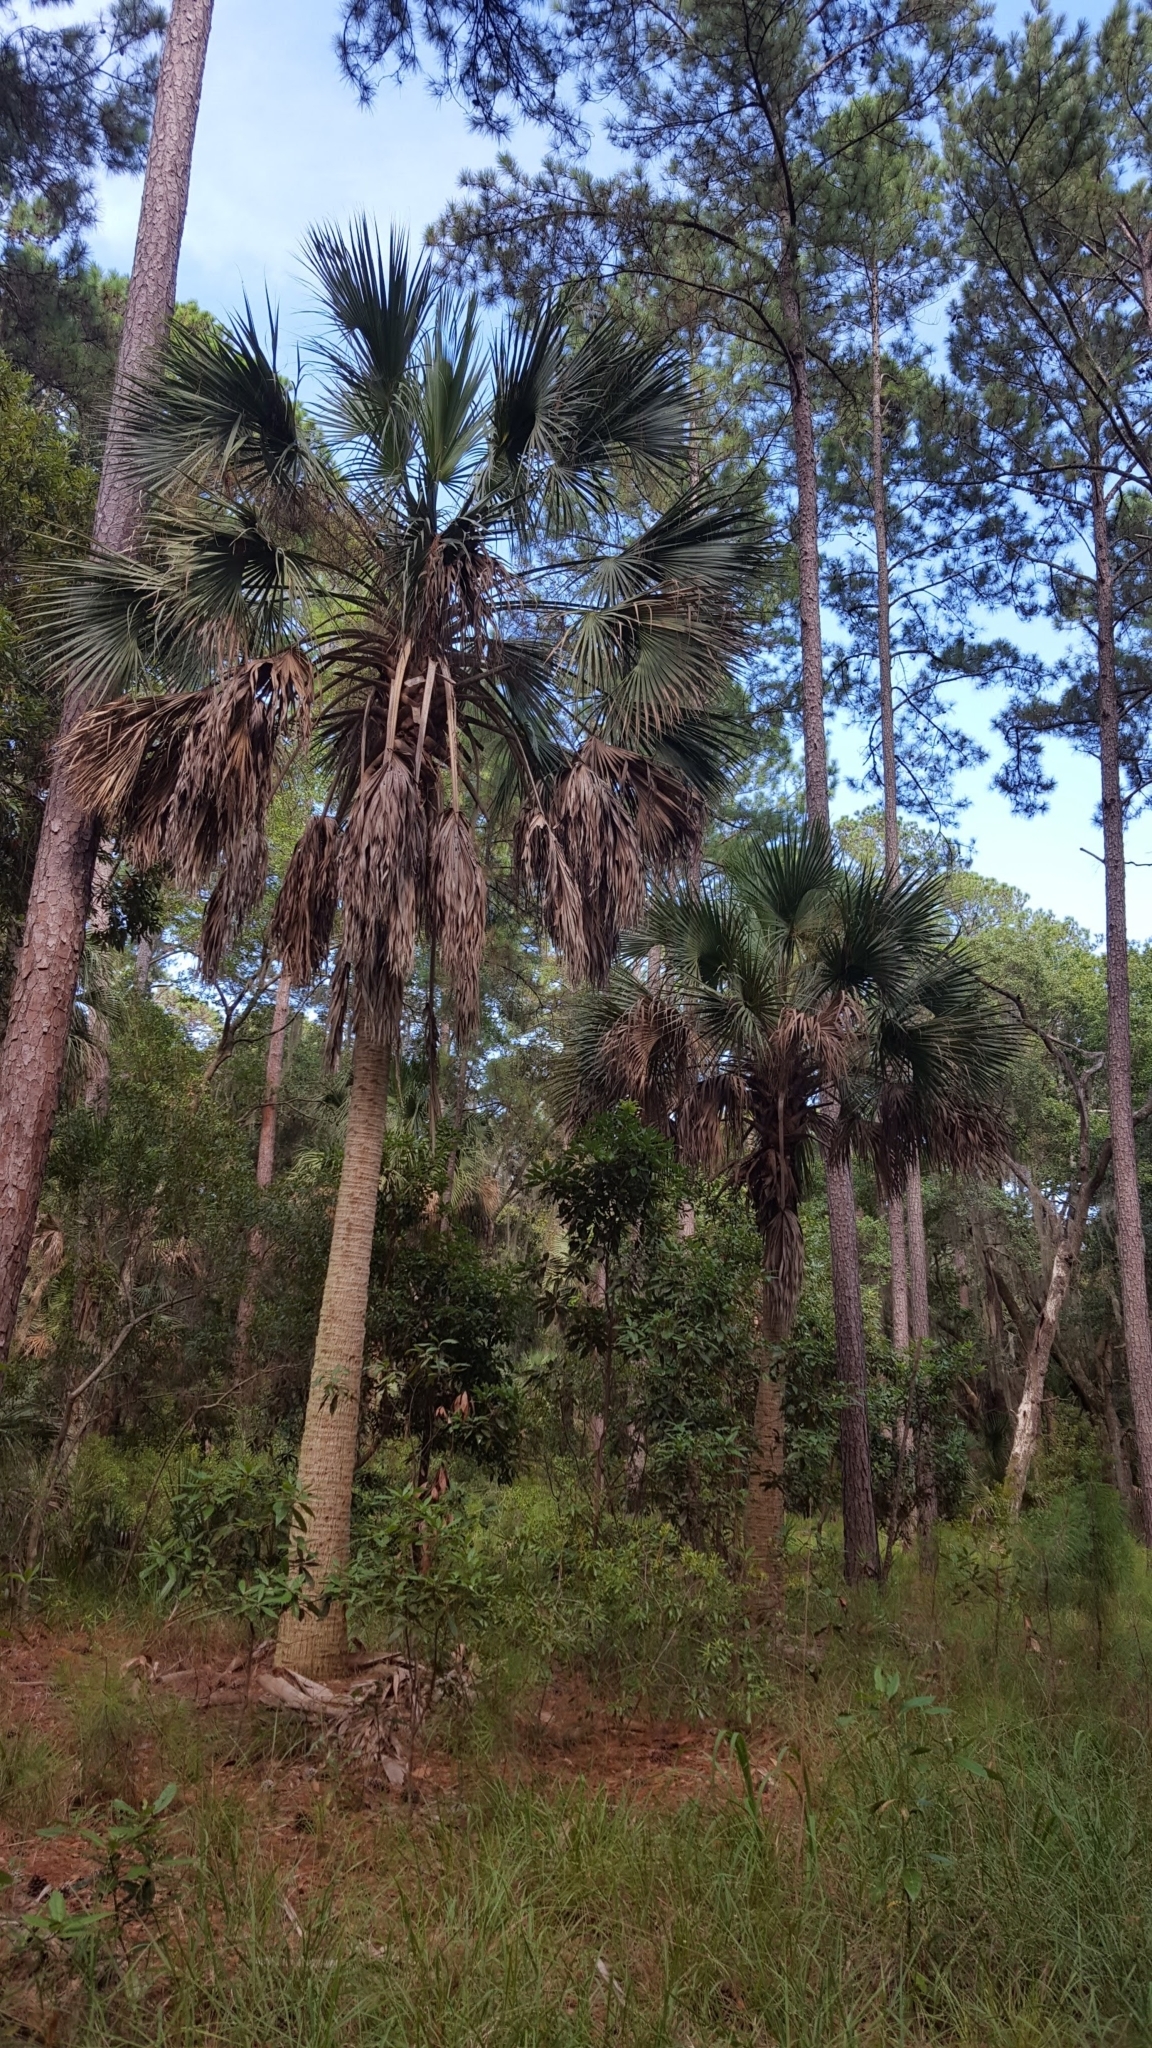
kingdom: Plantae
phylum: Tracheophyta
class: Liliopsida
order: Arecales
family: Arecaceae
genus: Sabal
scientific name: Sabal palmetto
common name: Blue palmetto
